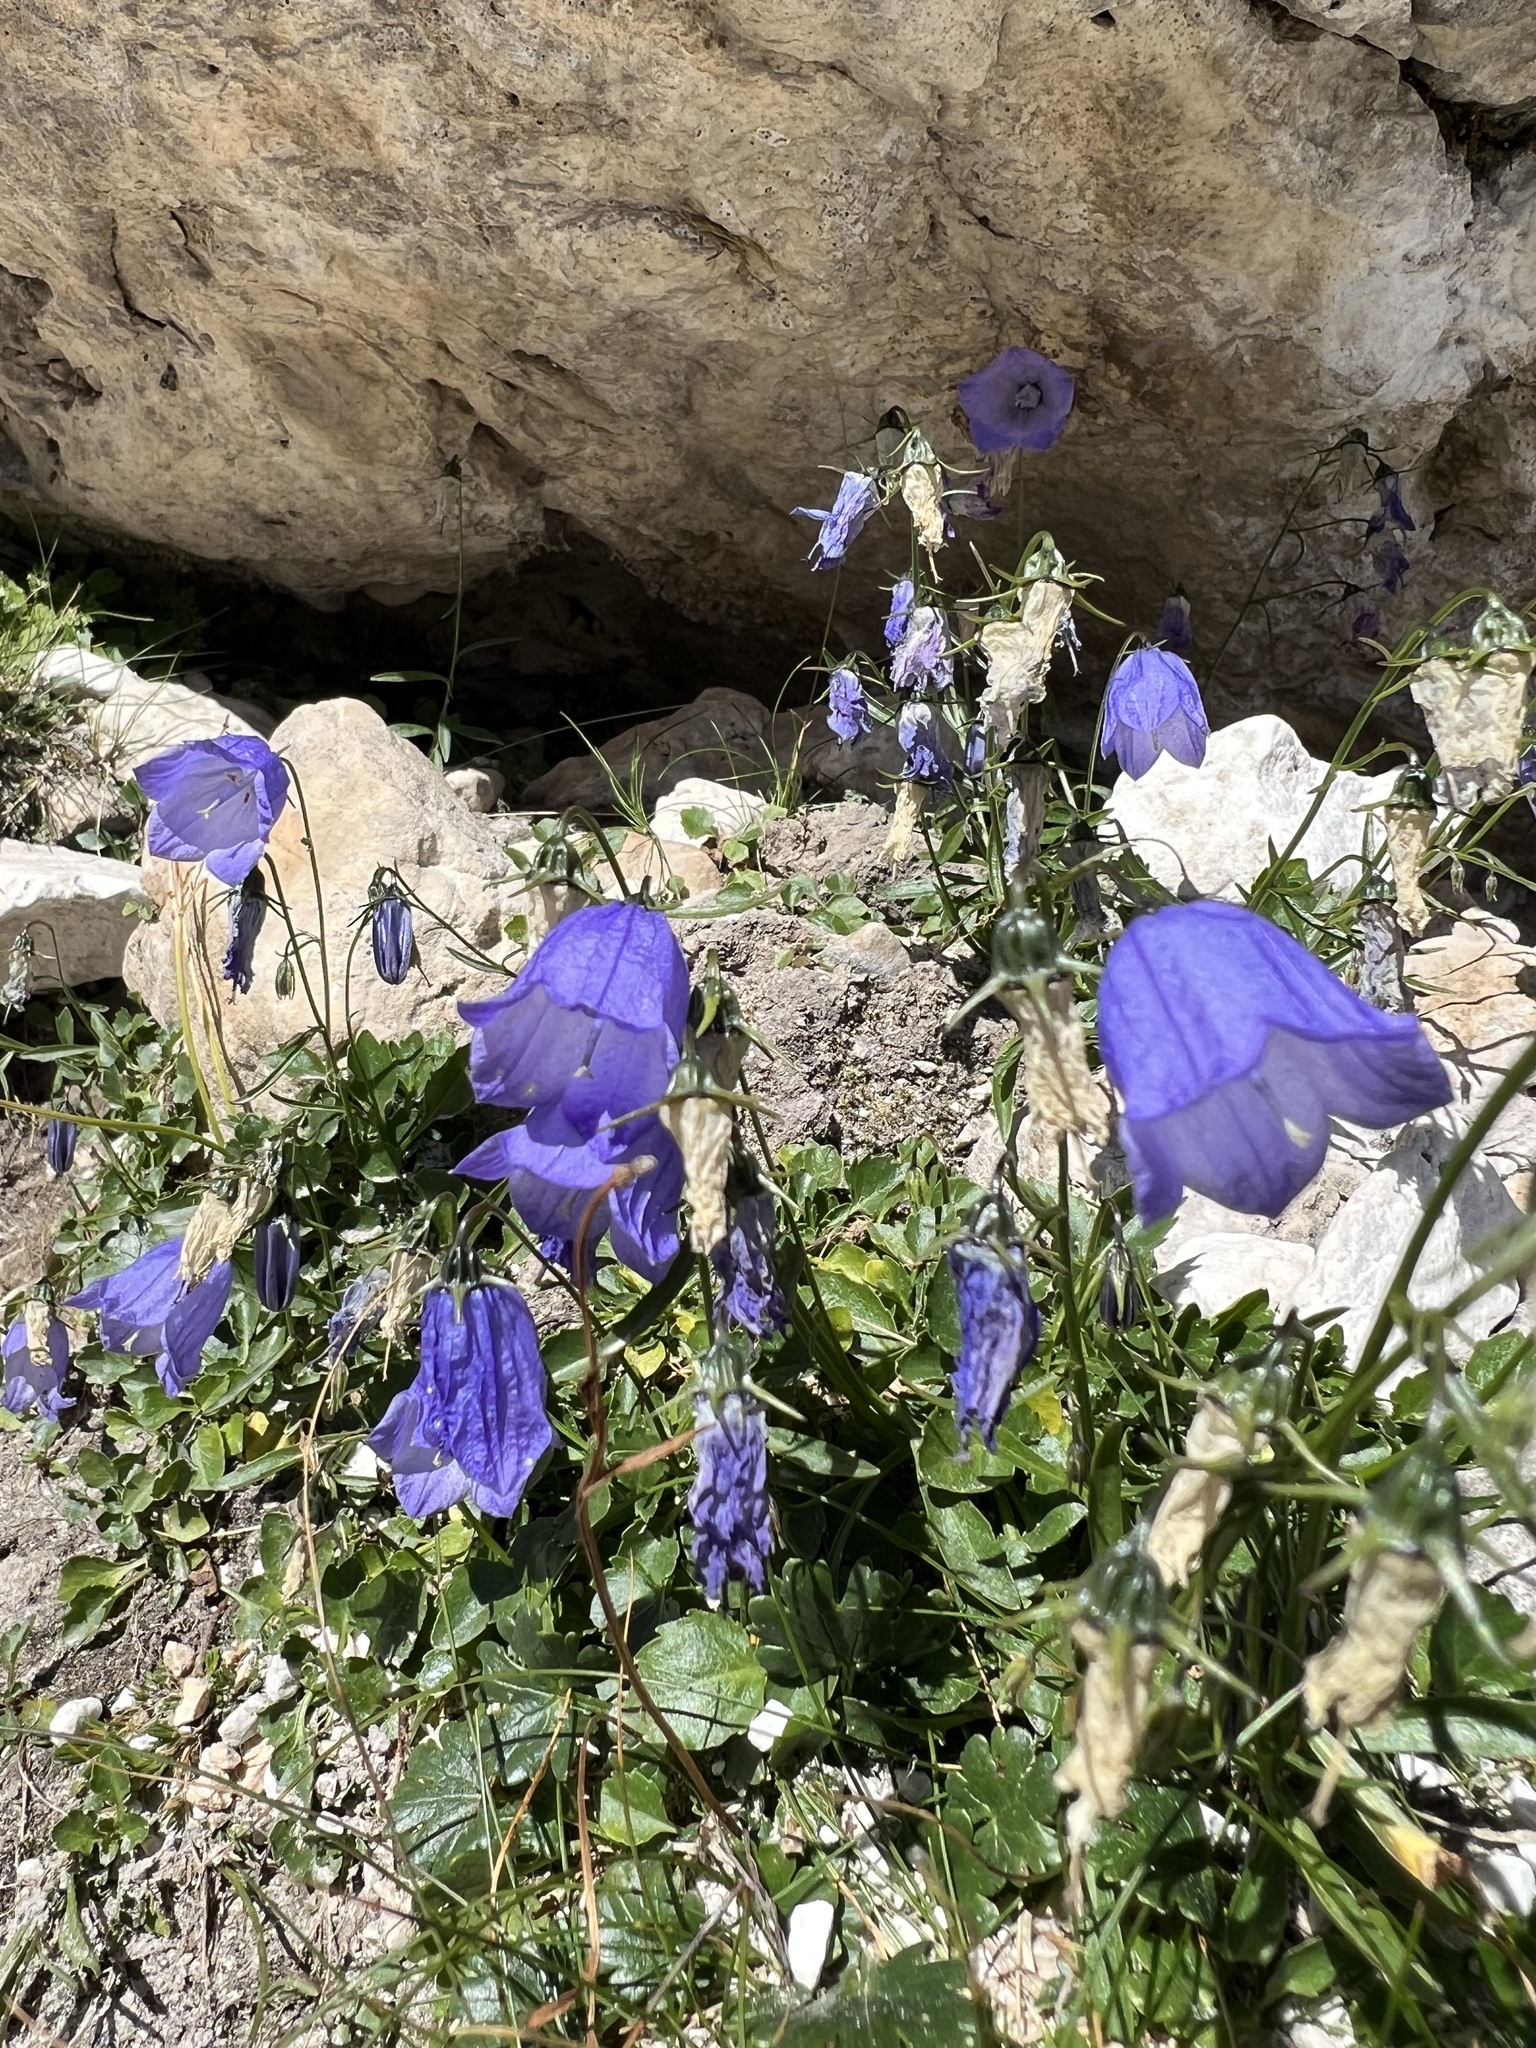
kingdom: Plantae
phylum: Tracheophyta
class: Magnoliopsida
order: Asterales
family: Campanulaceae
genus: Campanula
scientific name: Campanula cochleariifolia
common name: Fairies'-thimbles
